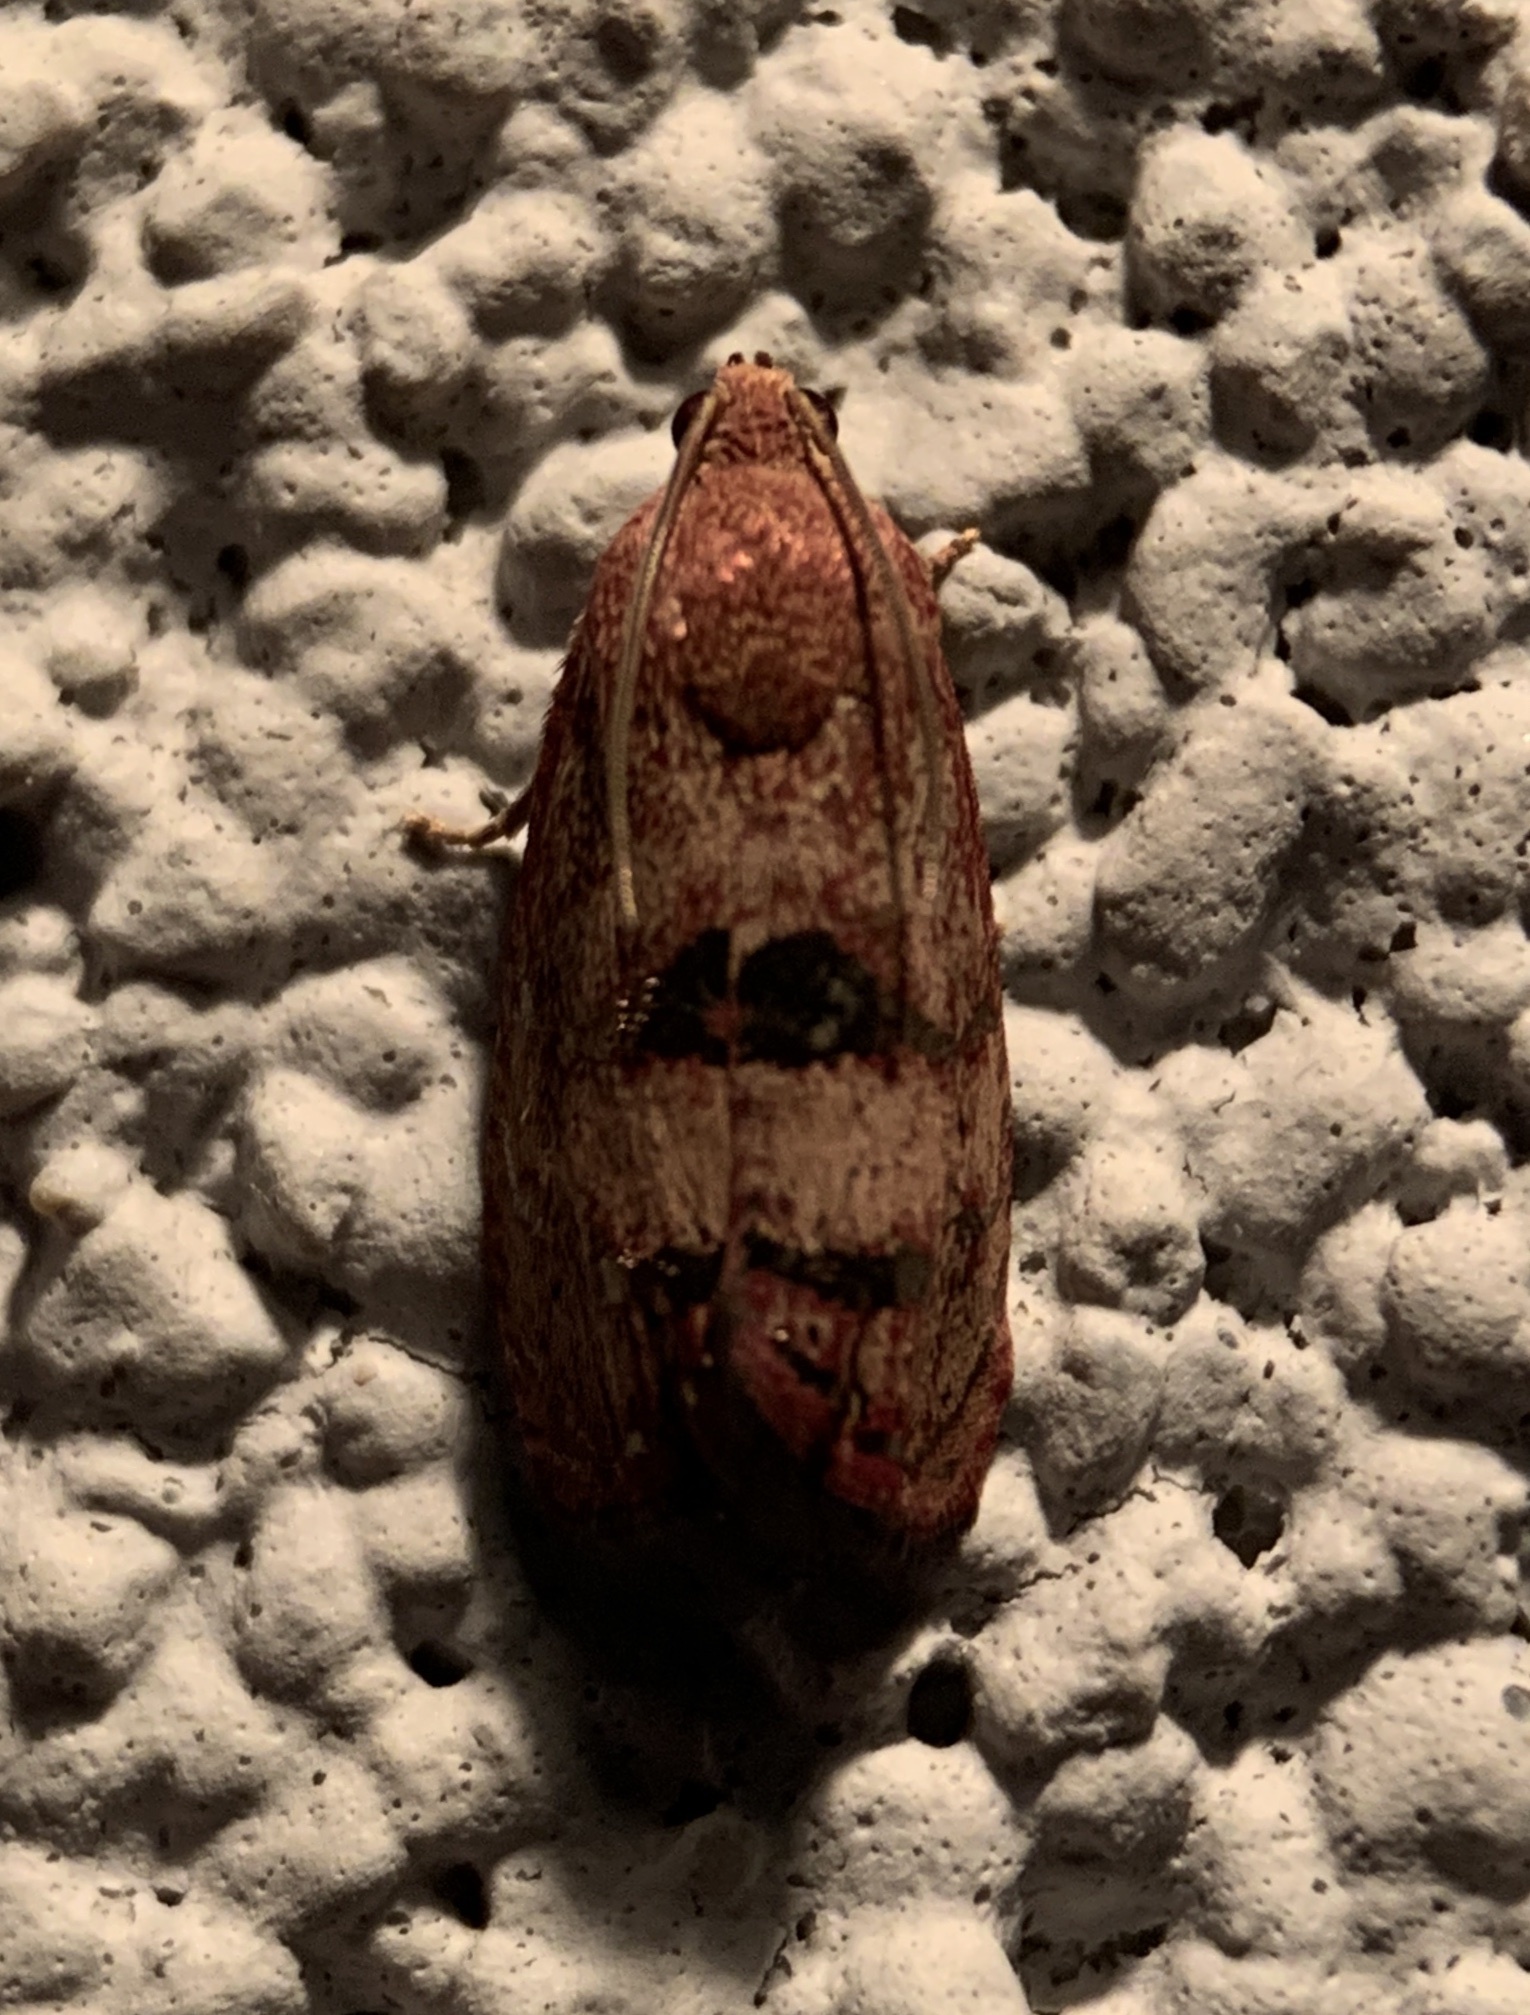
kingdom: Animalia
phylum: Arthropoda
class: Insecta
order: Lepidoptera
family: Tortricidae
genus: Cydia
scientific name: Cydia latiferreana
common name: Filbertworm moth
